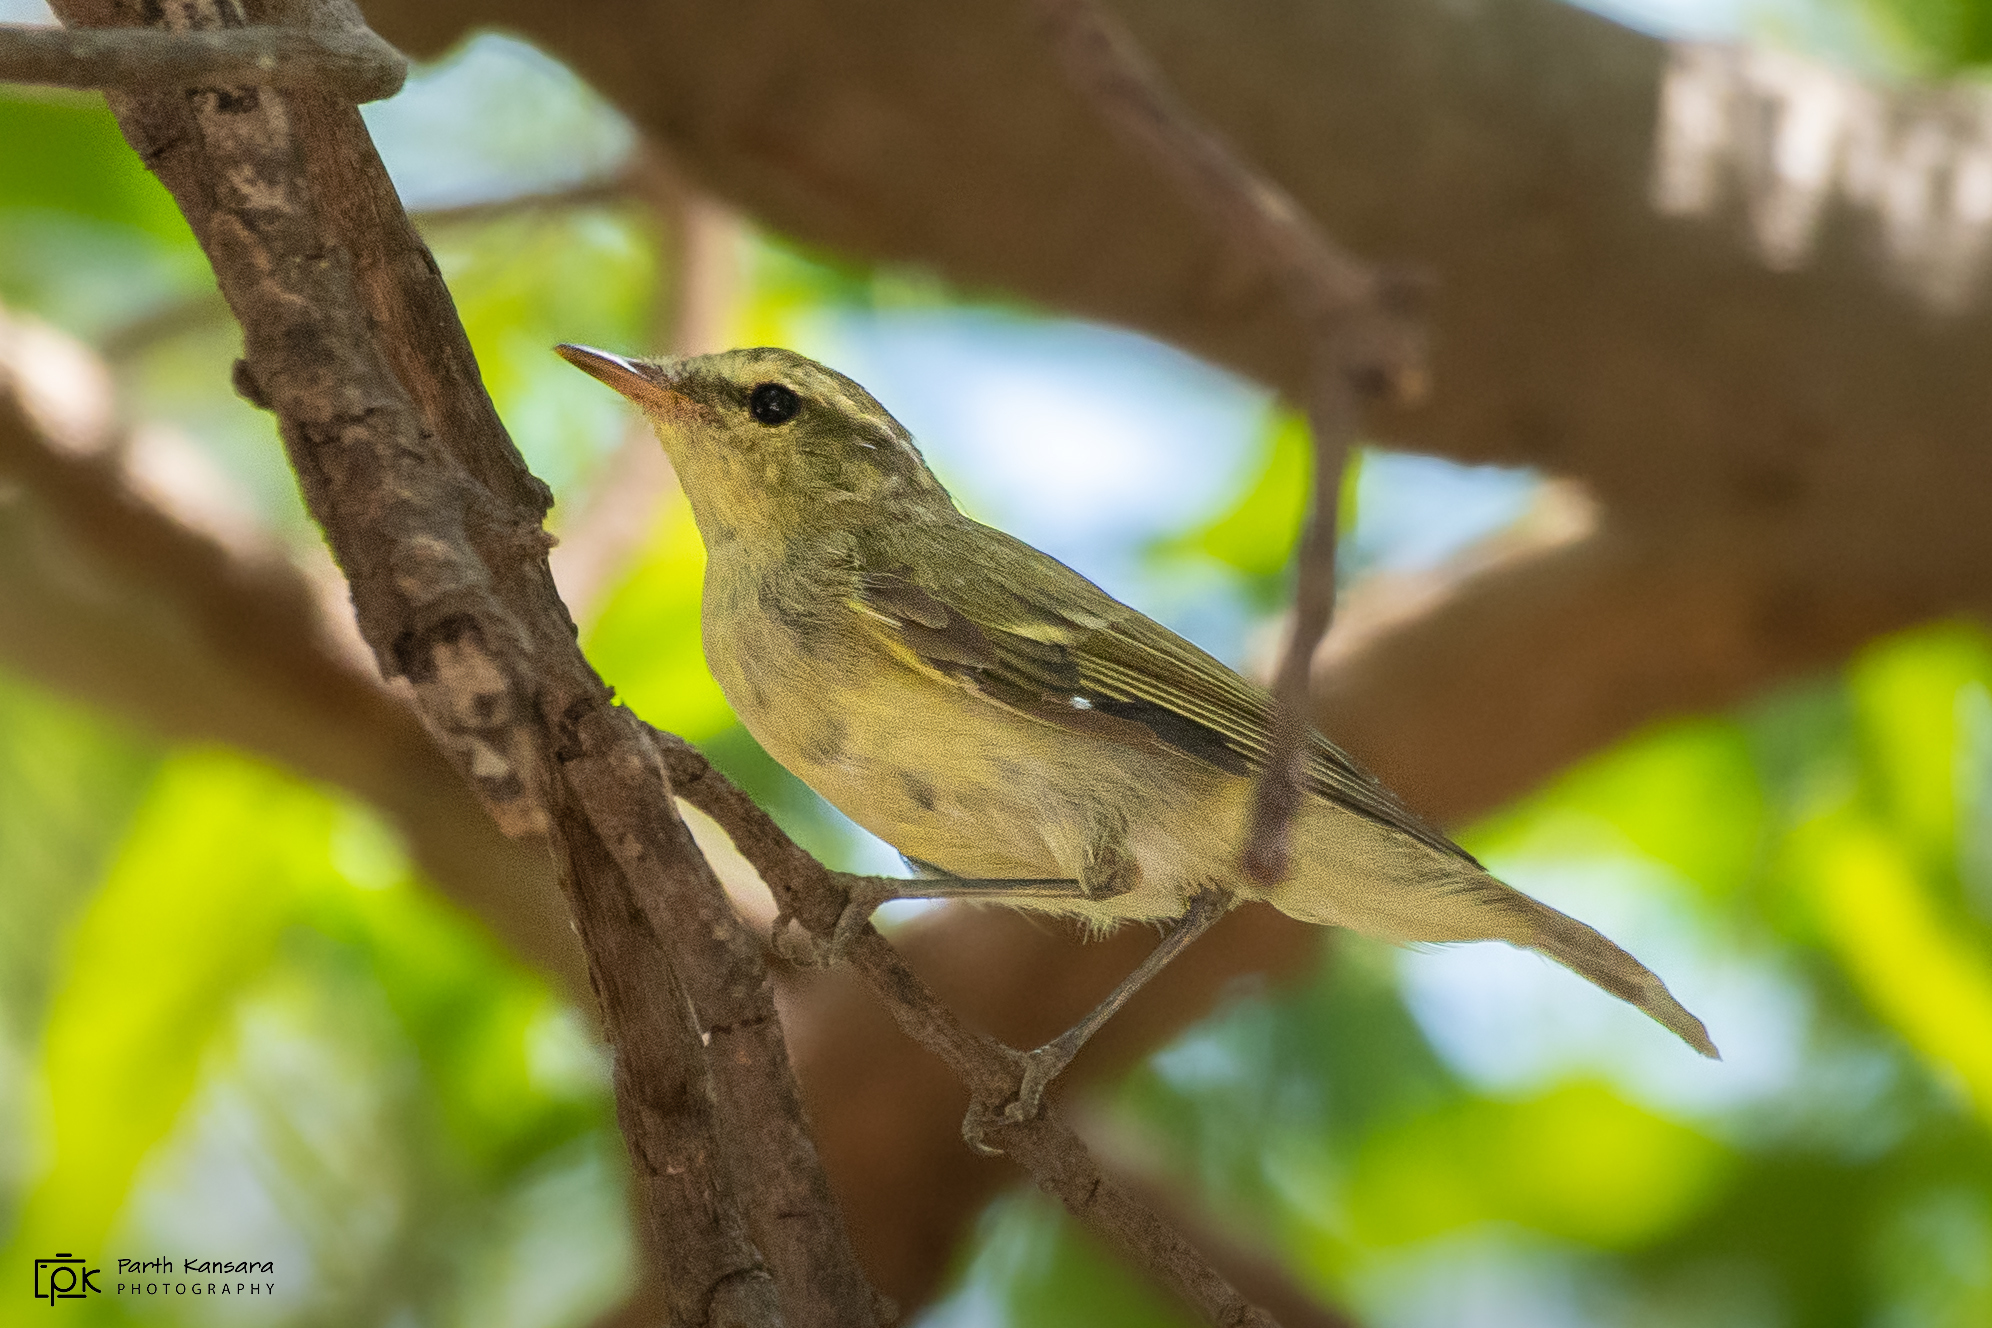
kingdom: Animalia
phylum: Chordata
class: Aves
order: Passeriformes
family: Phylloscopidae
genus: Phylloscopus
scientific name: Phylloscopus nitidus
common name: Green warbler
